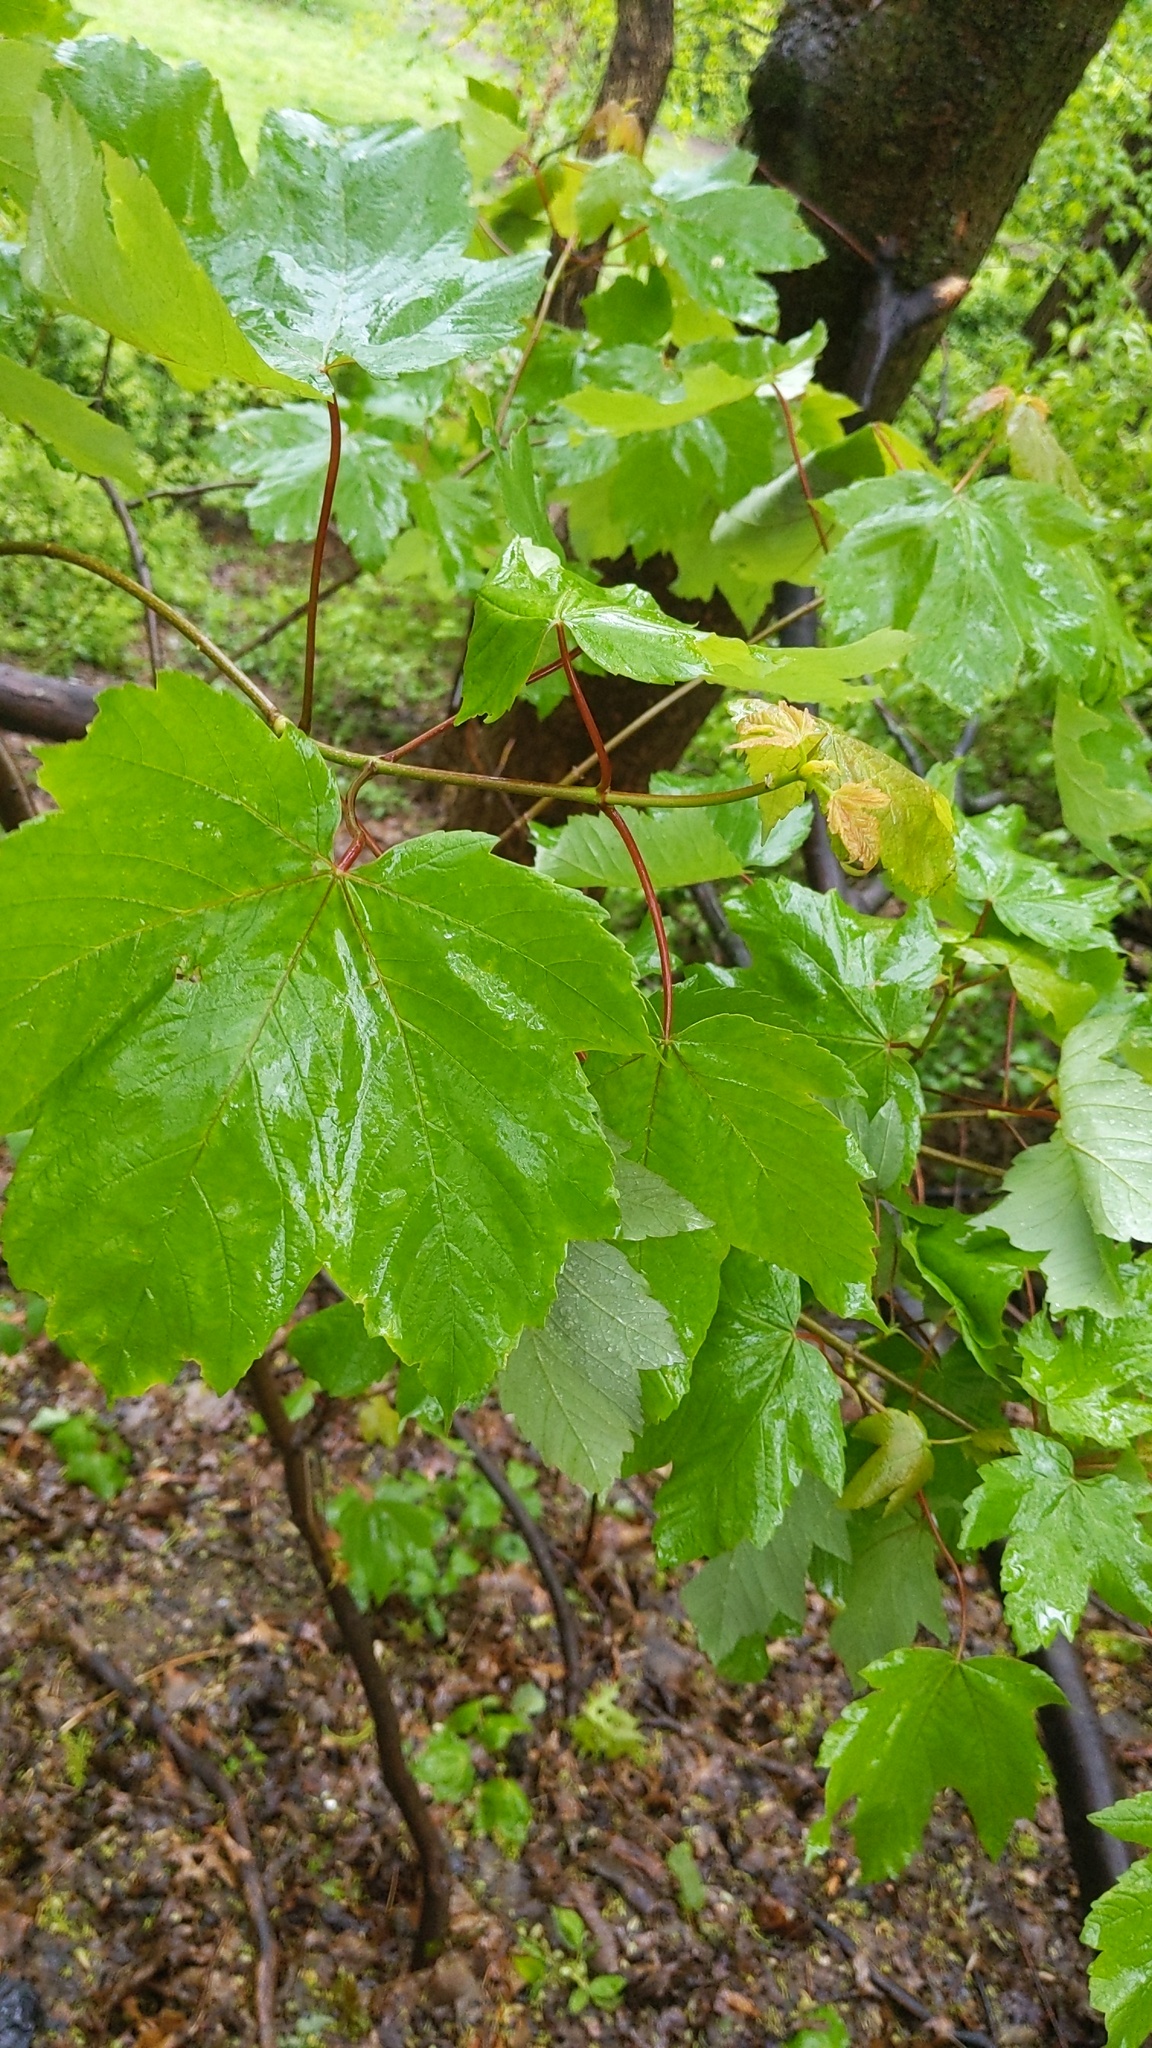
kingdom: Plantae
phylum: Tracheophyta
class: Magnoliopsida
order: Sapindales
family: Sapindaceae
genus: Acer
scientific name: Acer pseudoplatanus
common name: Sycamore
